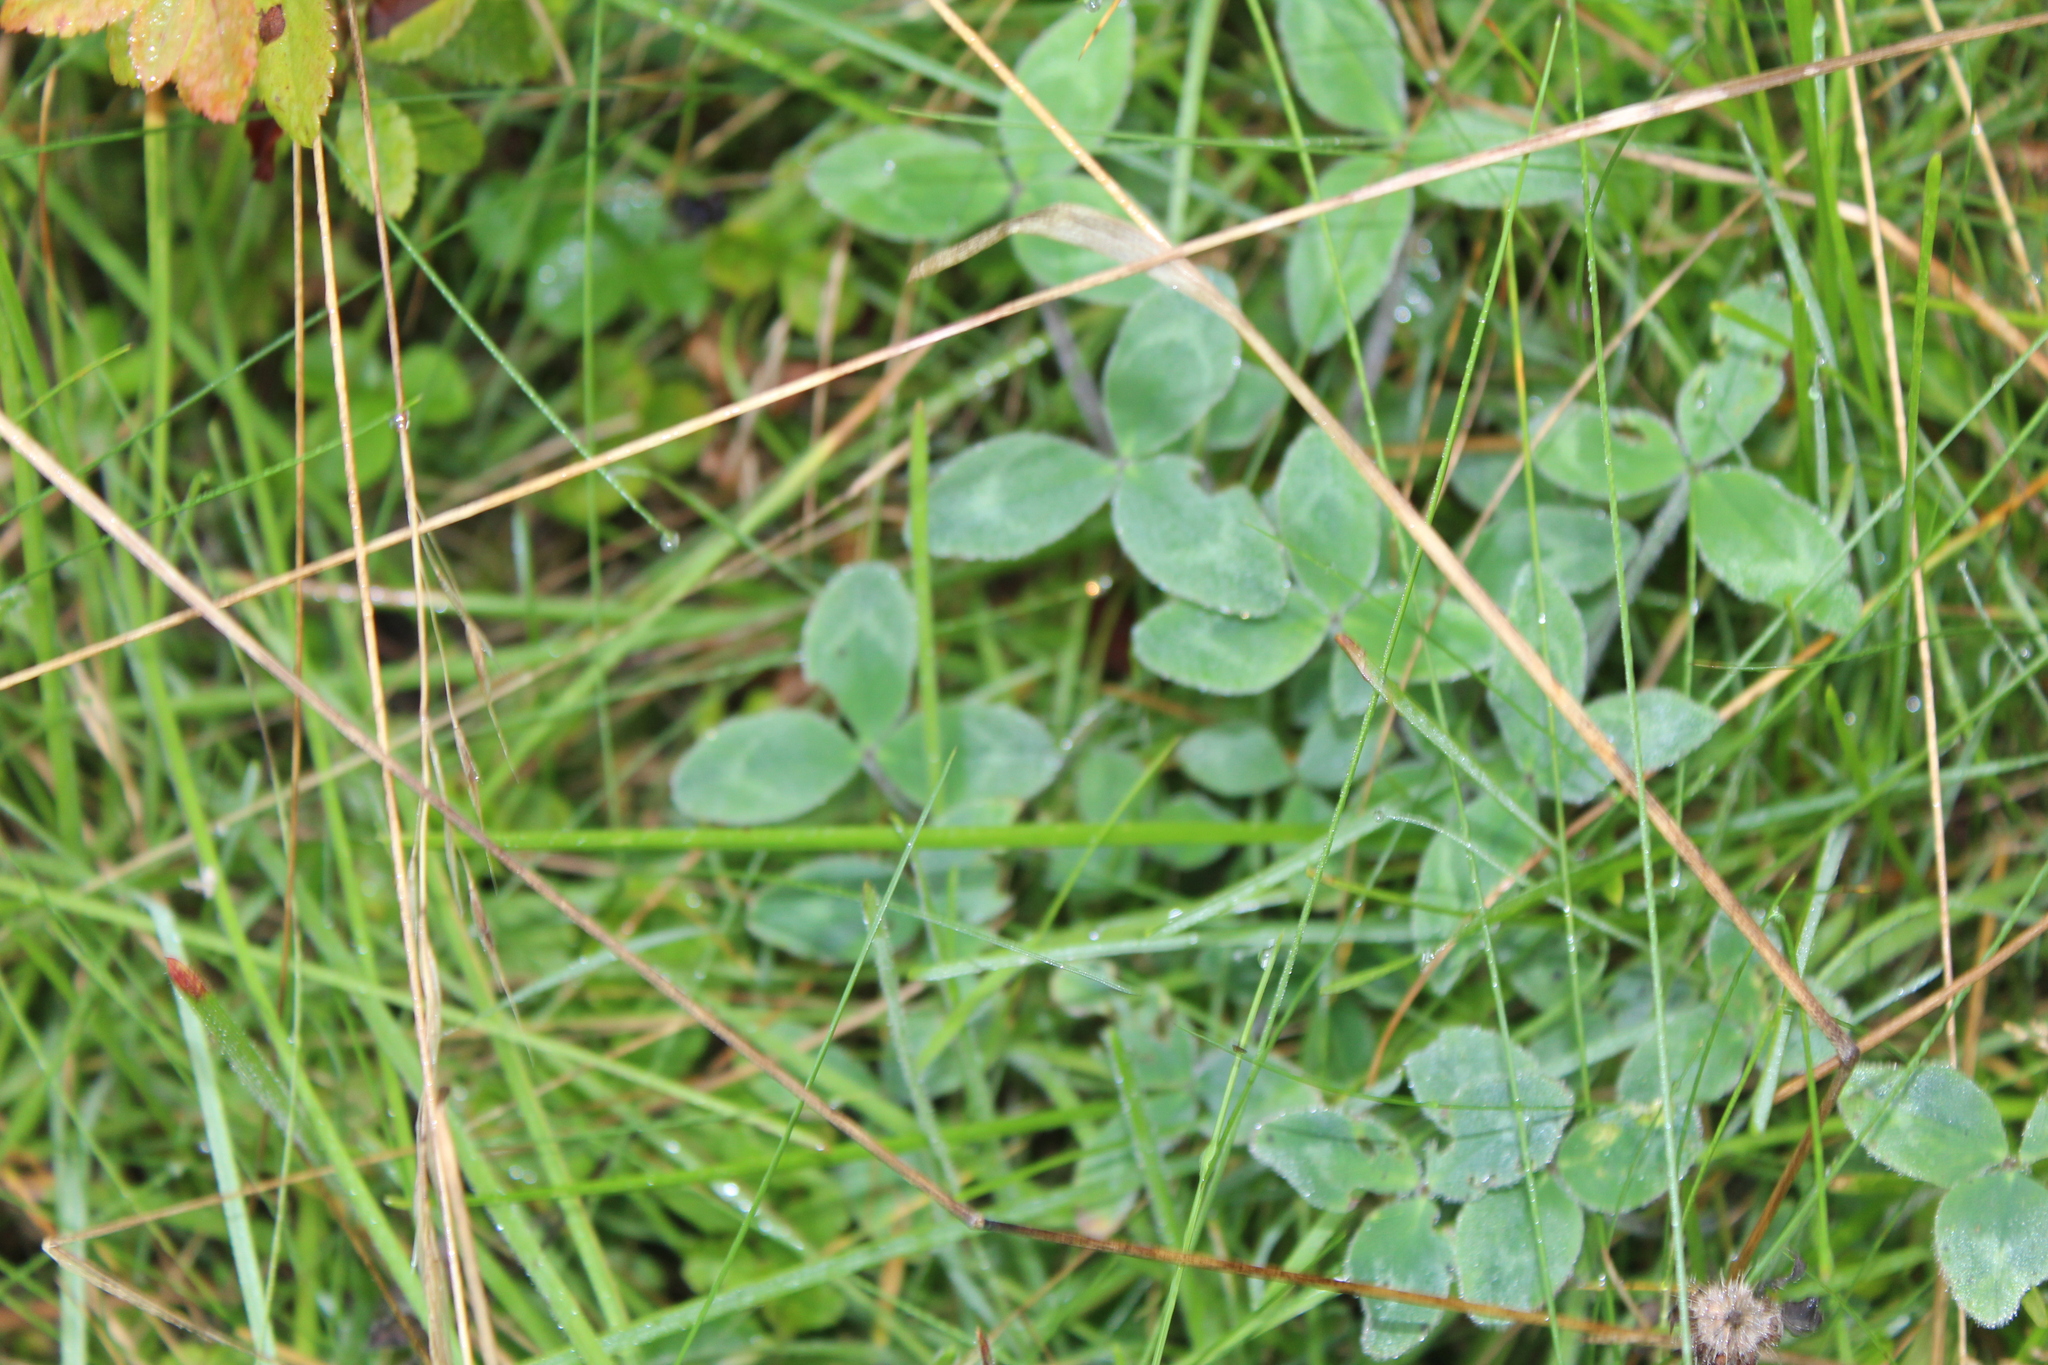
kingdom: Plantae
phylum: Tracheophyta
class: Magnoliopsida
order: Fabales
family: Fabaceae
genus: Trifolium
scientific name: Trifolium pratense
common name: Red clover
